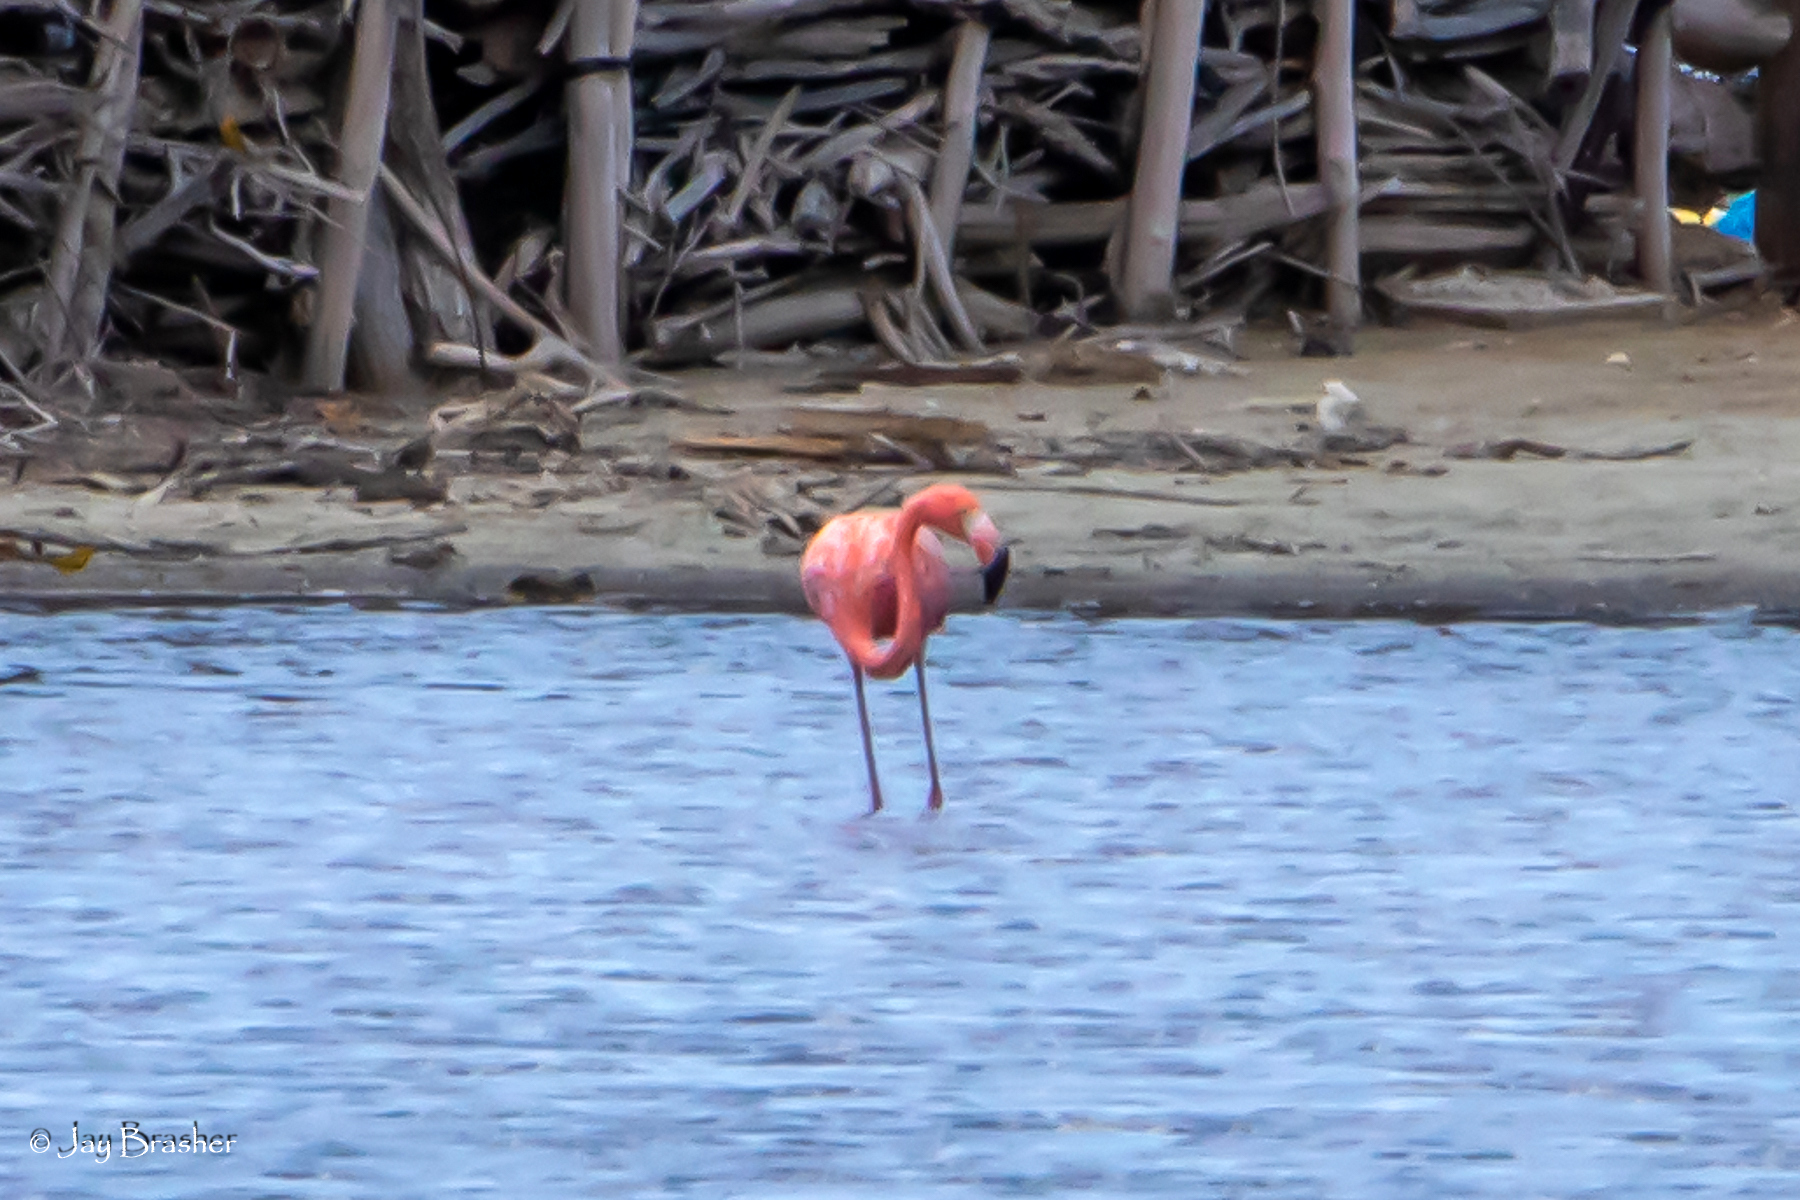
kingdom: Animalia
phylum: Chordata
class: Aves
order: Phoenicopteriformes
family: Phoenicopteridae
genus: Phoenicopterus
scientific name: Phoenicopterus ruber
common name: American flamingo
